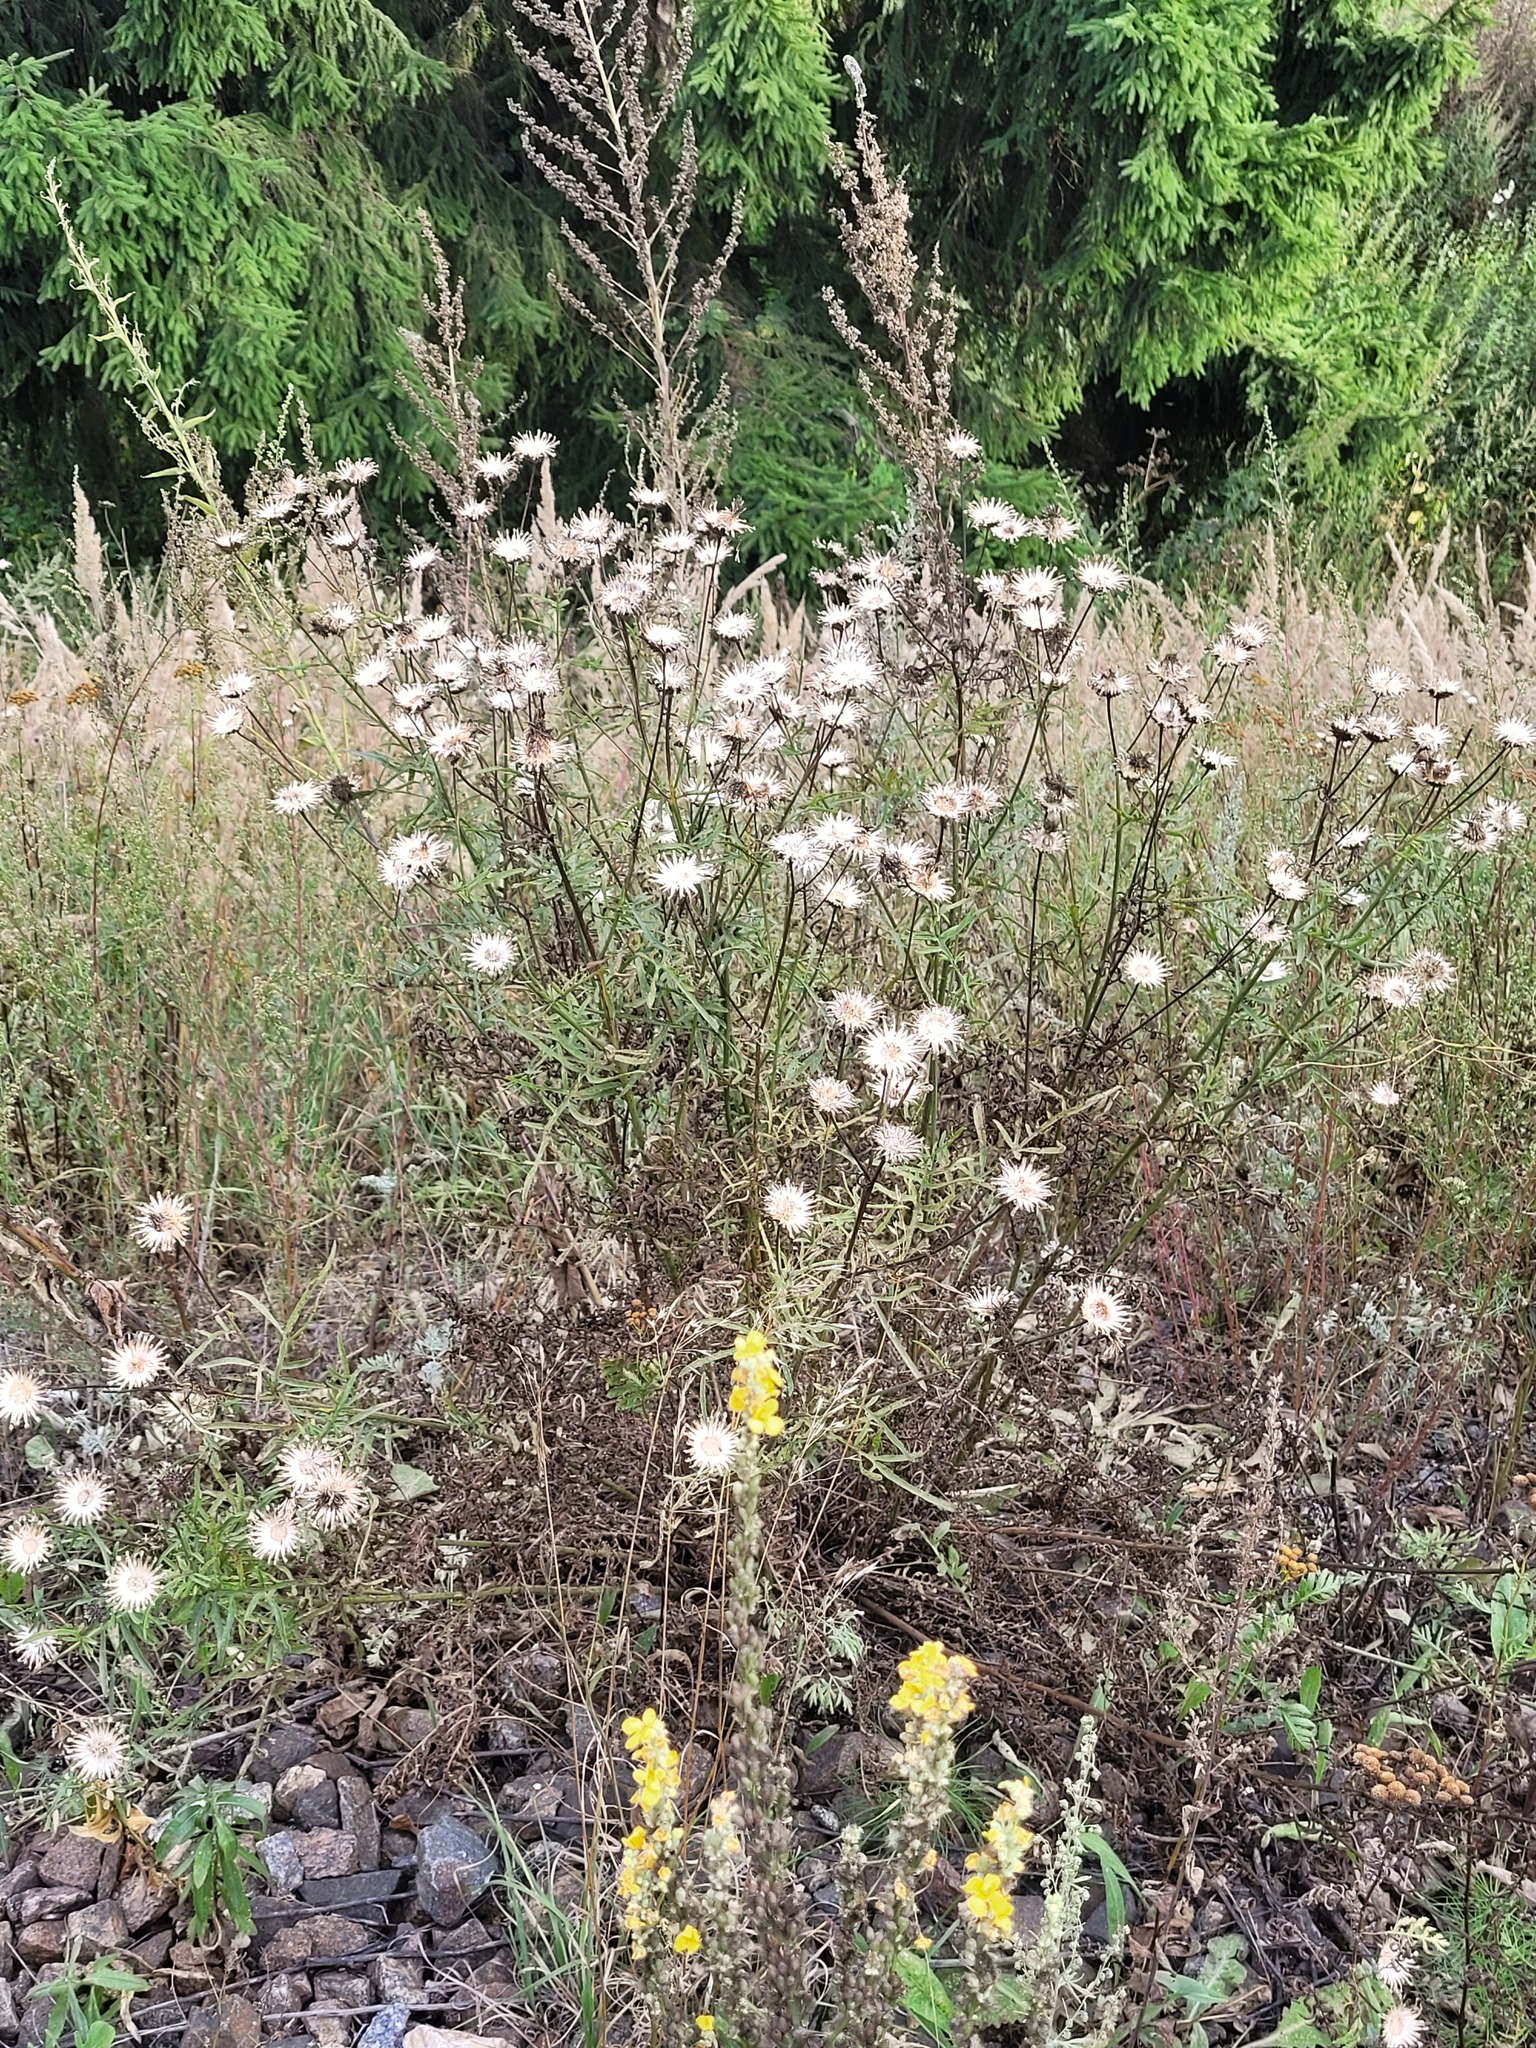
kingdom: Plantae
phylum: Tracheophyta
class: Magnoliopsida
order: Asterales
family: Asteraceae
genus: Centaurea
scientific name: Centaurea scabiosa
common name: Greater knapweed
